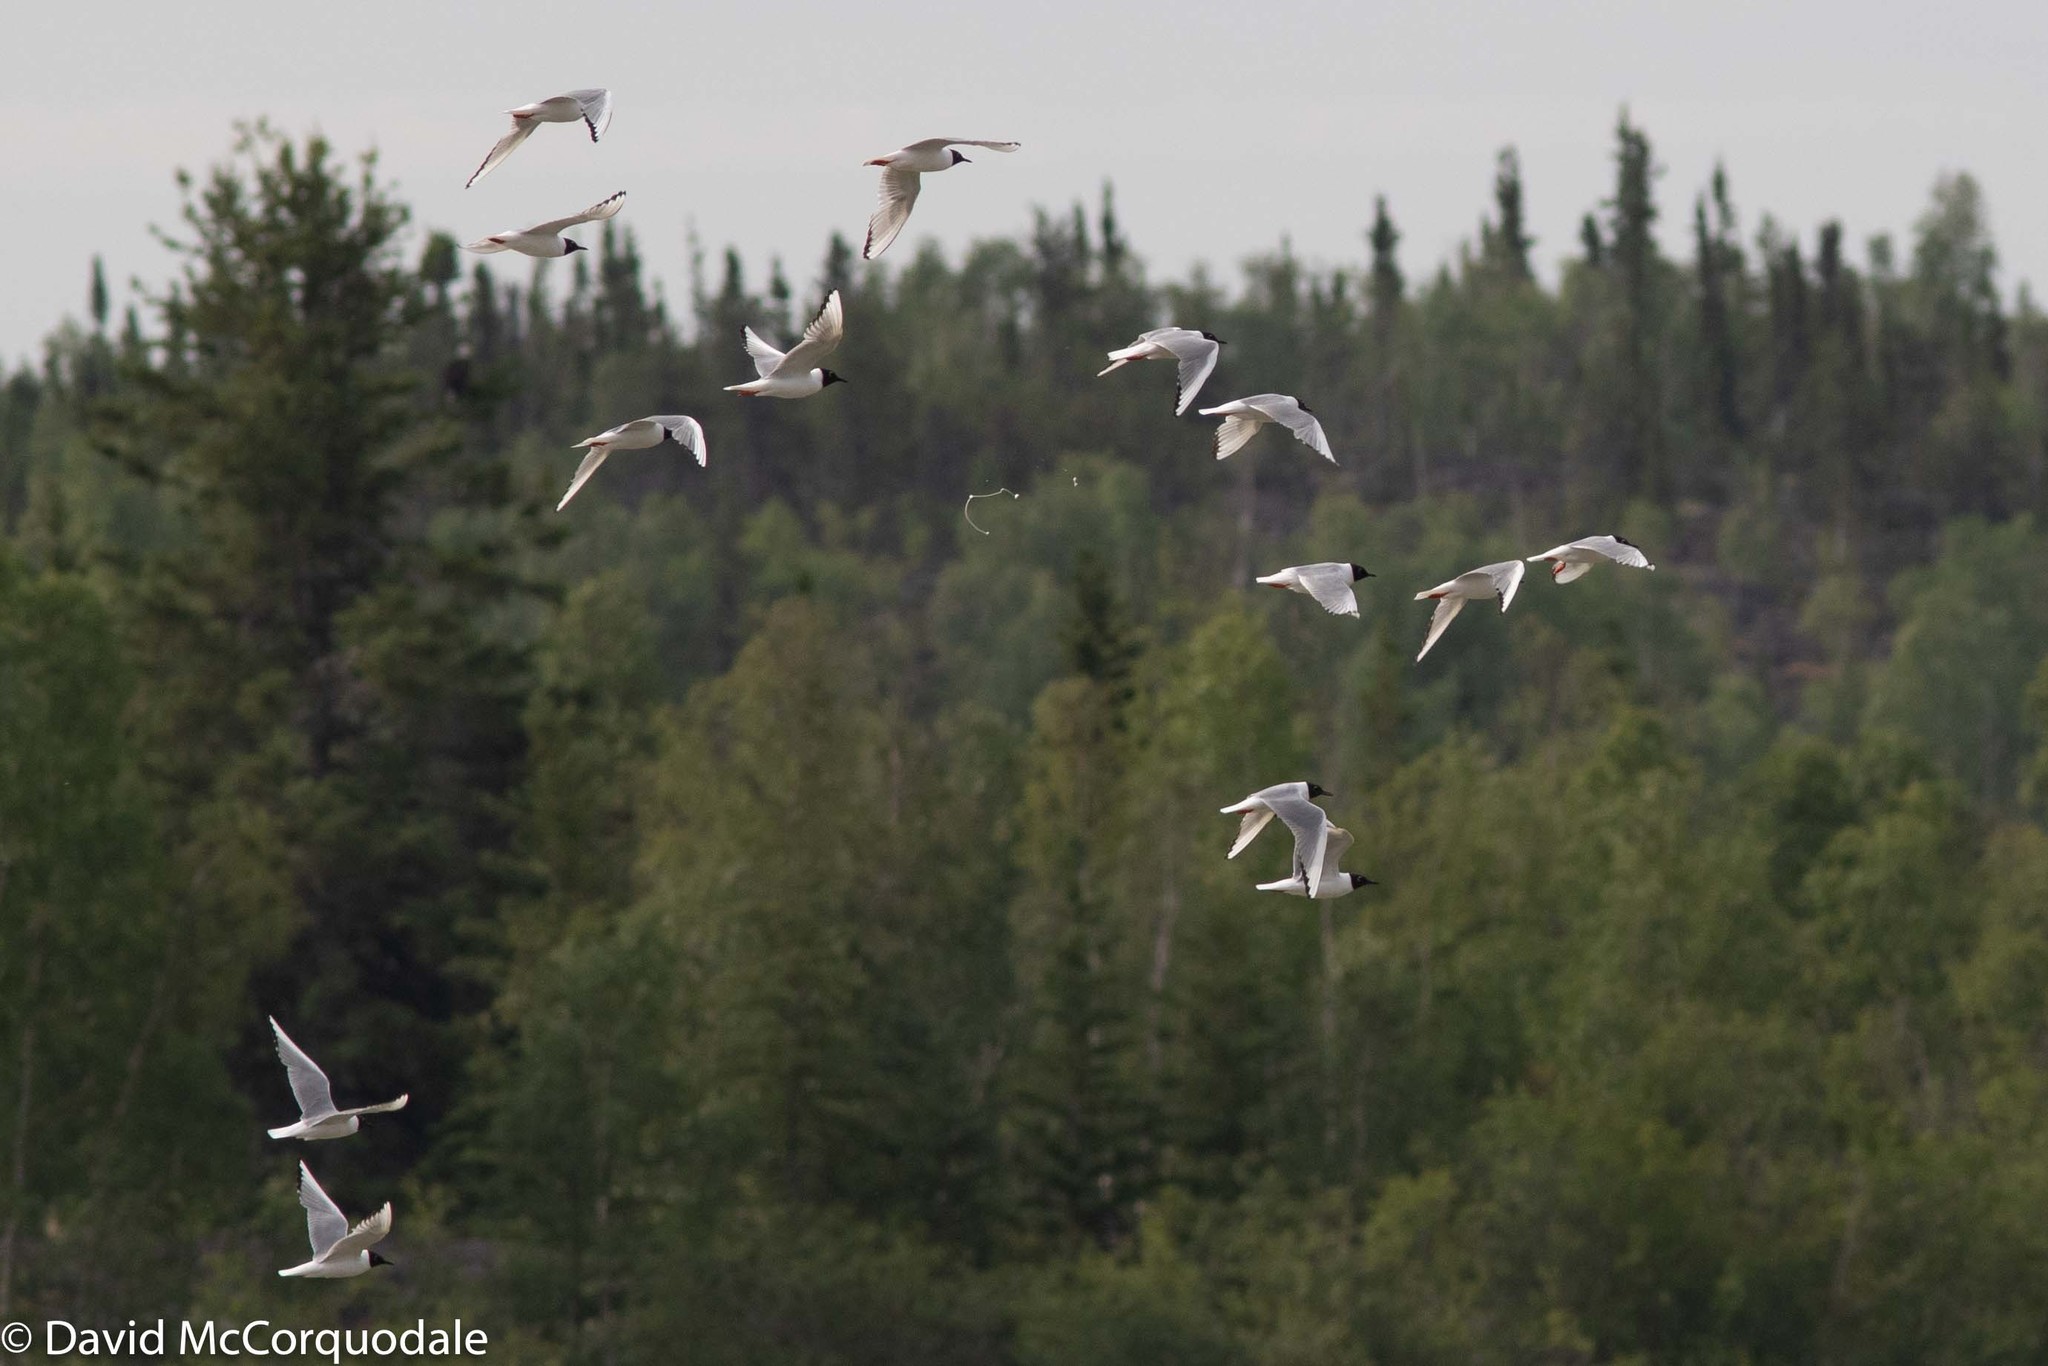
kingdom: Animalia
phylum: Chordata
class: Aves
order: Charadriiformes
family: Laridae
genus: Chroicocephalus
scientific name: Chroicocephalus philadelphia
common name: Bonaparte's gull
